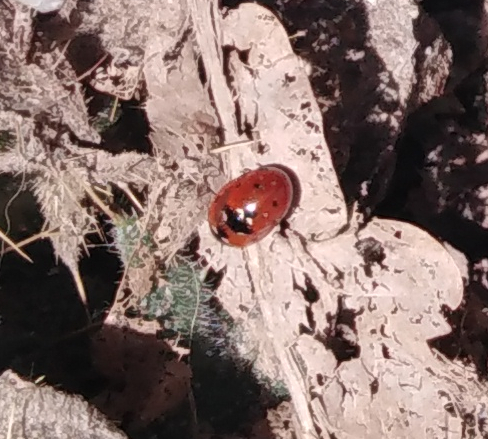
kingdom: Animalia
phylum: Arthropoda
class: Insecta
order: Coleoptera
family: Coccinellidae
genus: Coccinella
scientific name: Coccinella septempunctata
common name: Sevenspotted lady beetle
